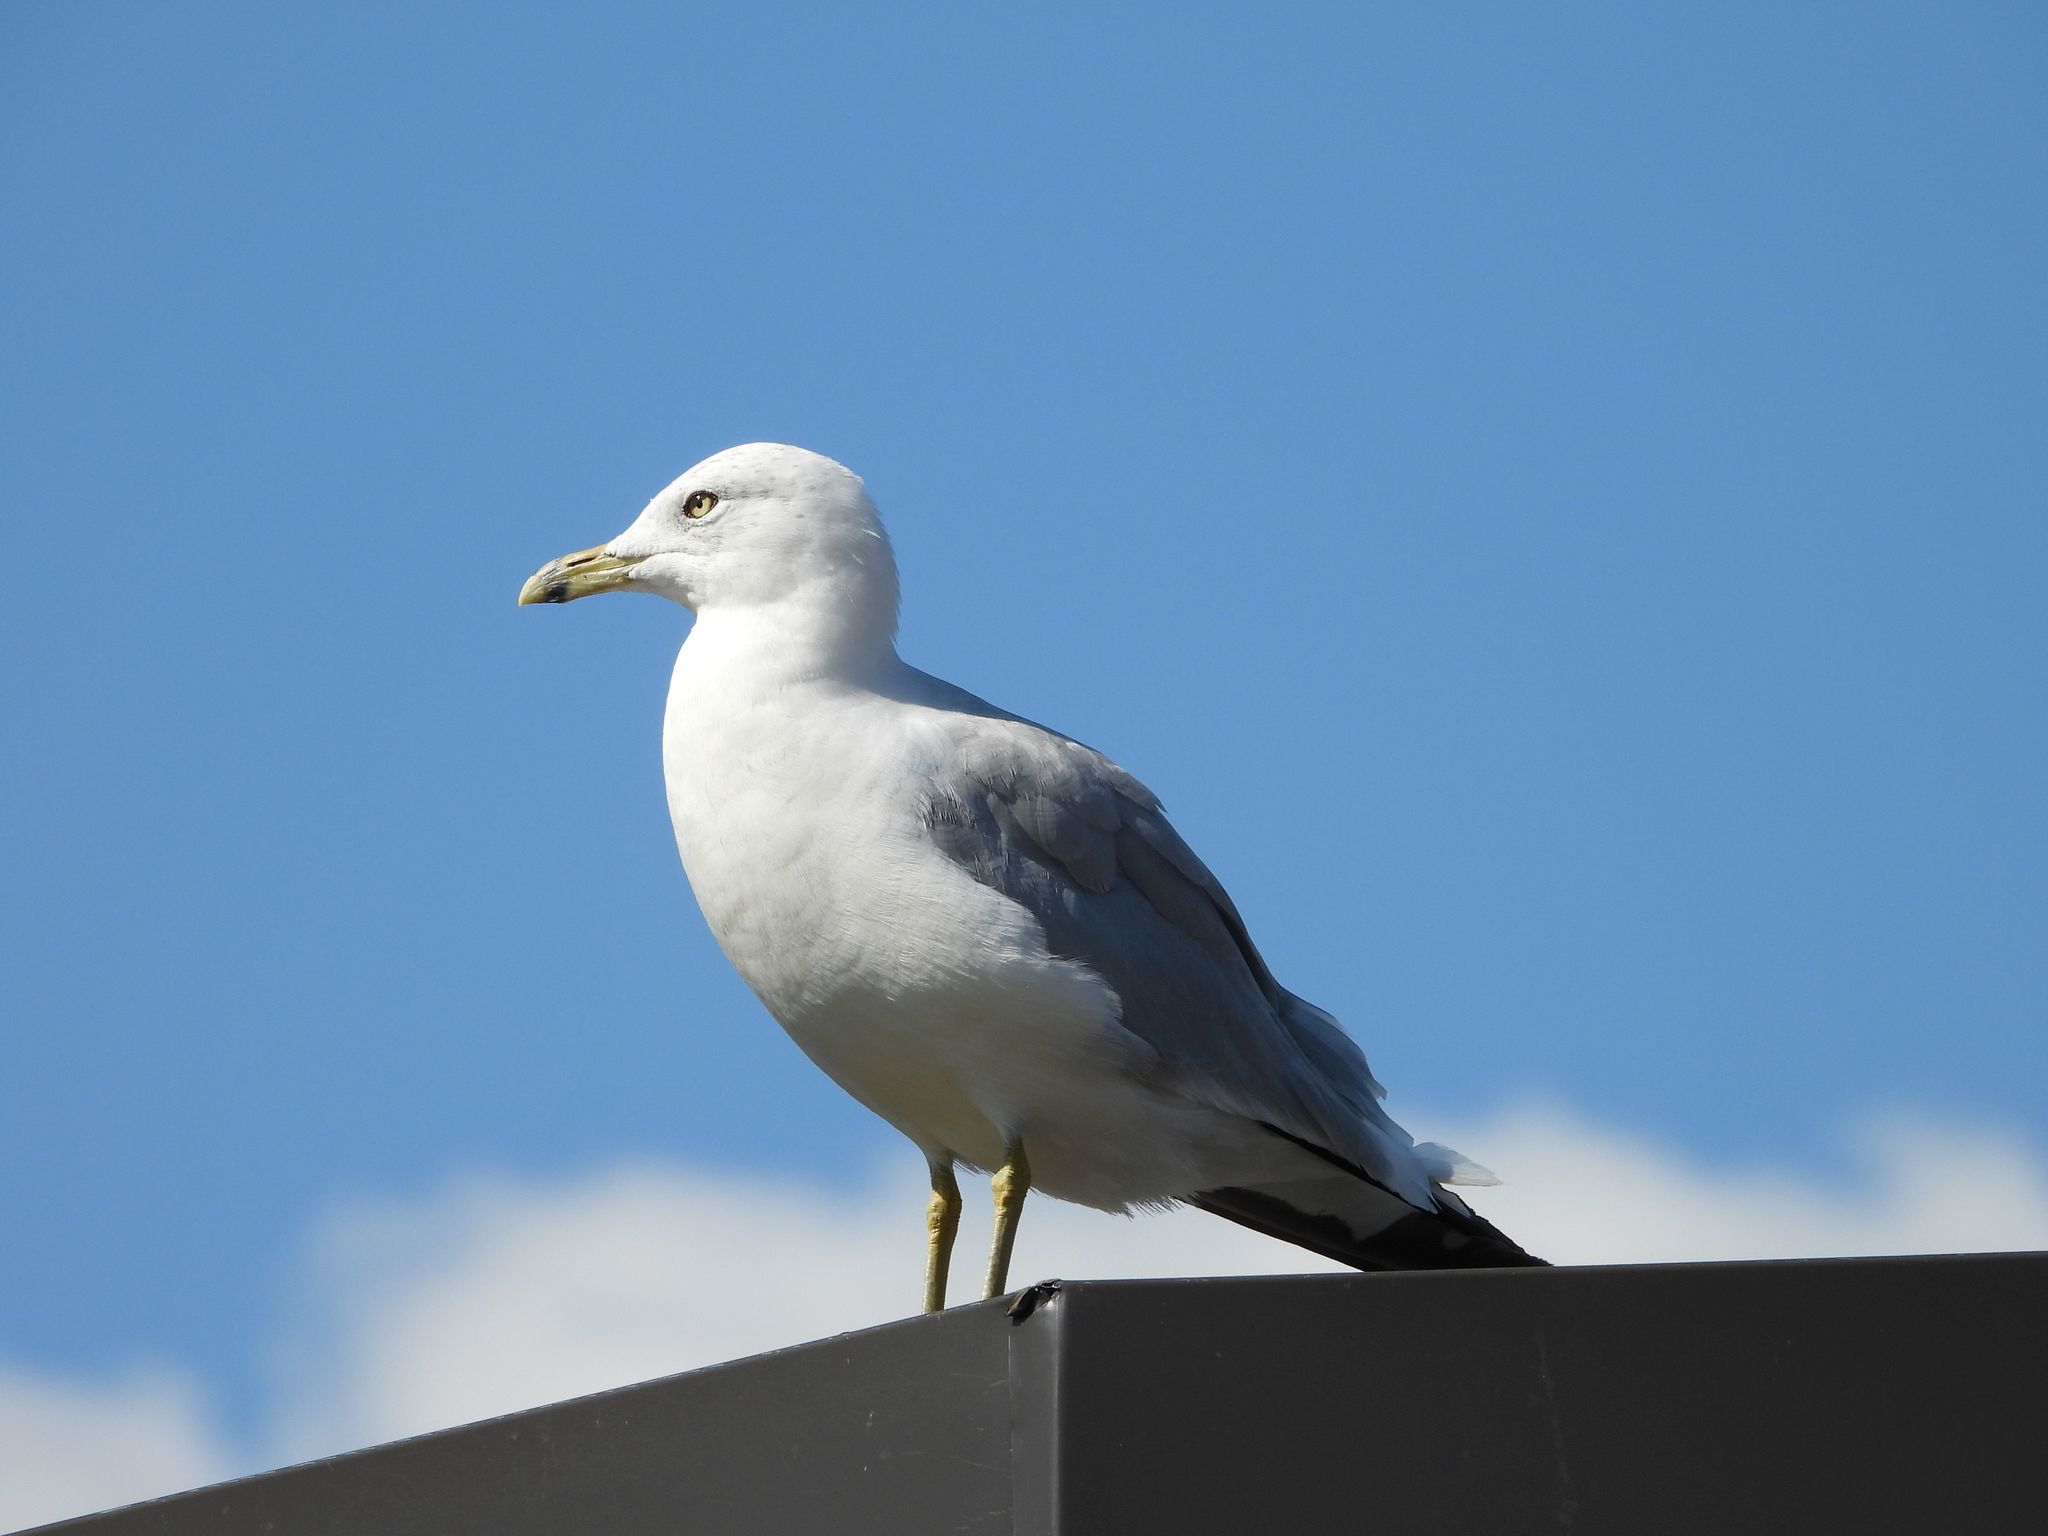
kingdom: Animalia
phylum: Chordata
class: Aves
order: Charadriiformes
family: Laridae
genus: Larus
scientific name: Larus delawarensis
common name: Ring-billed gull
